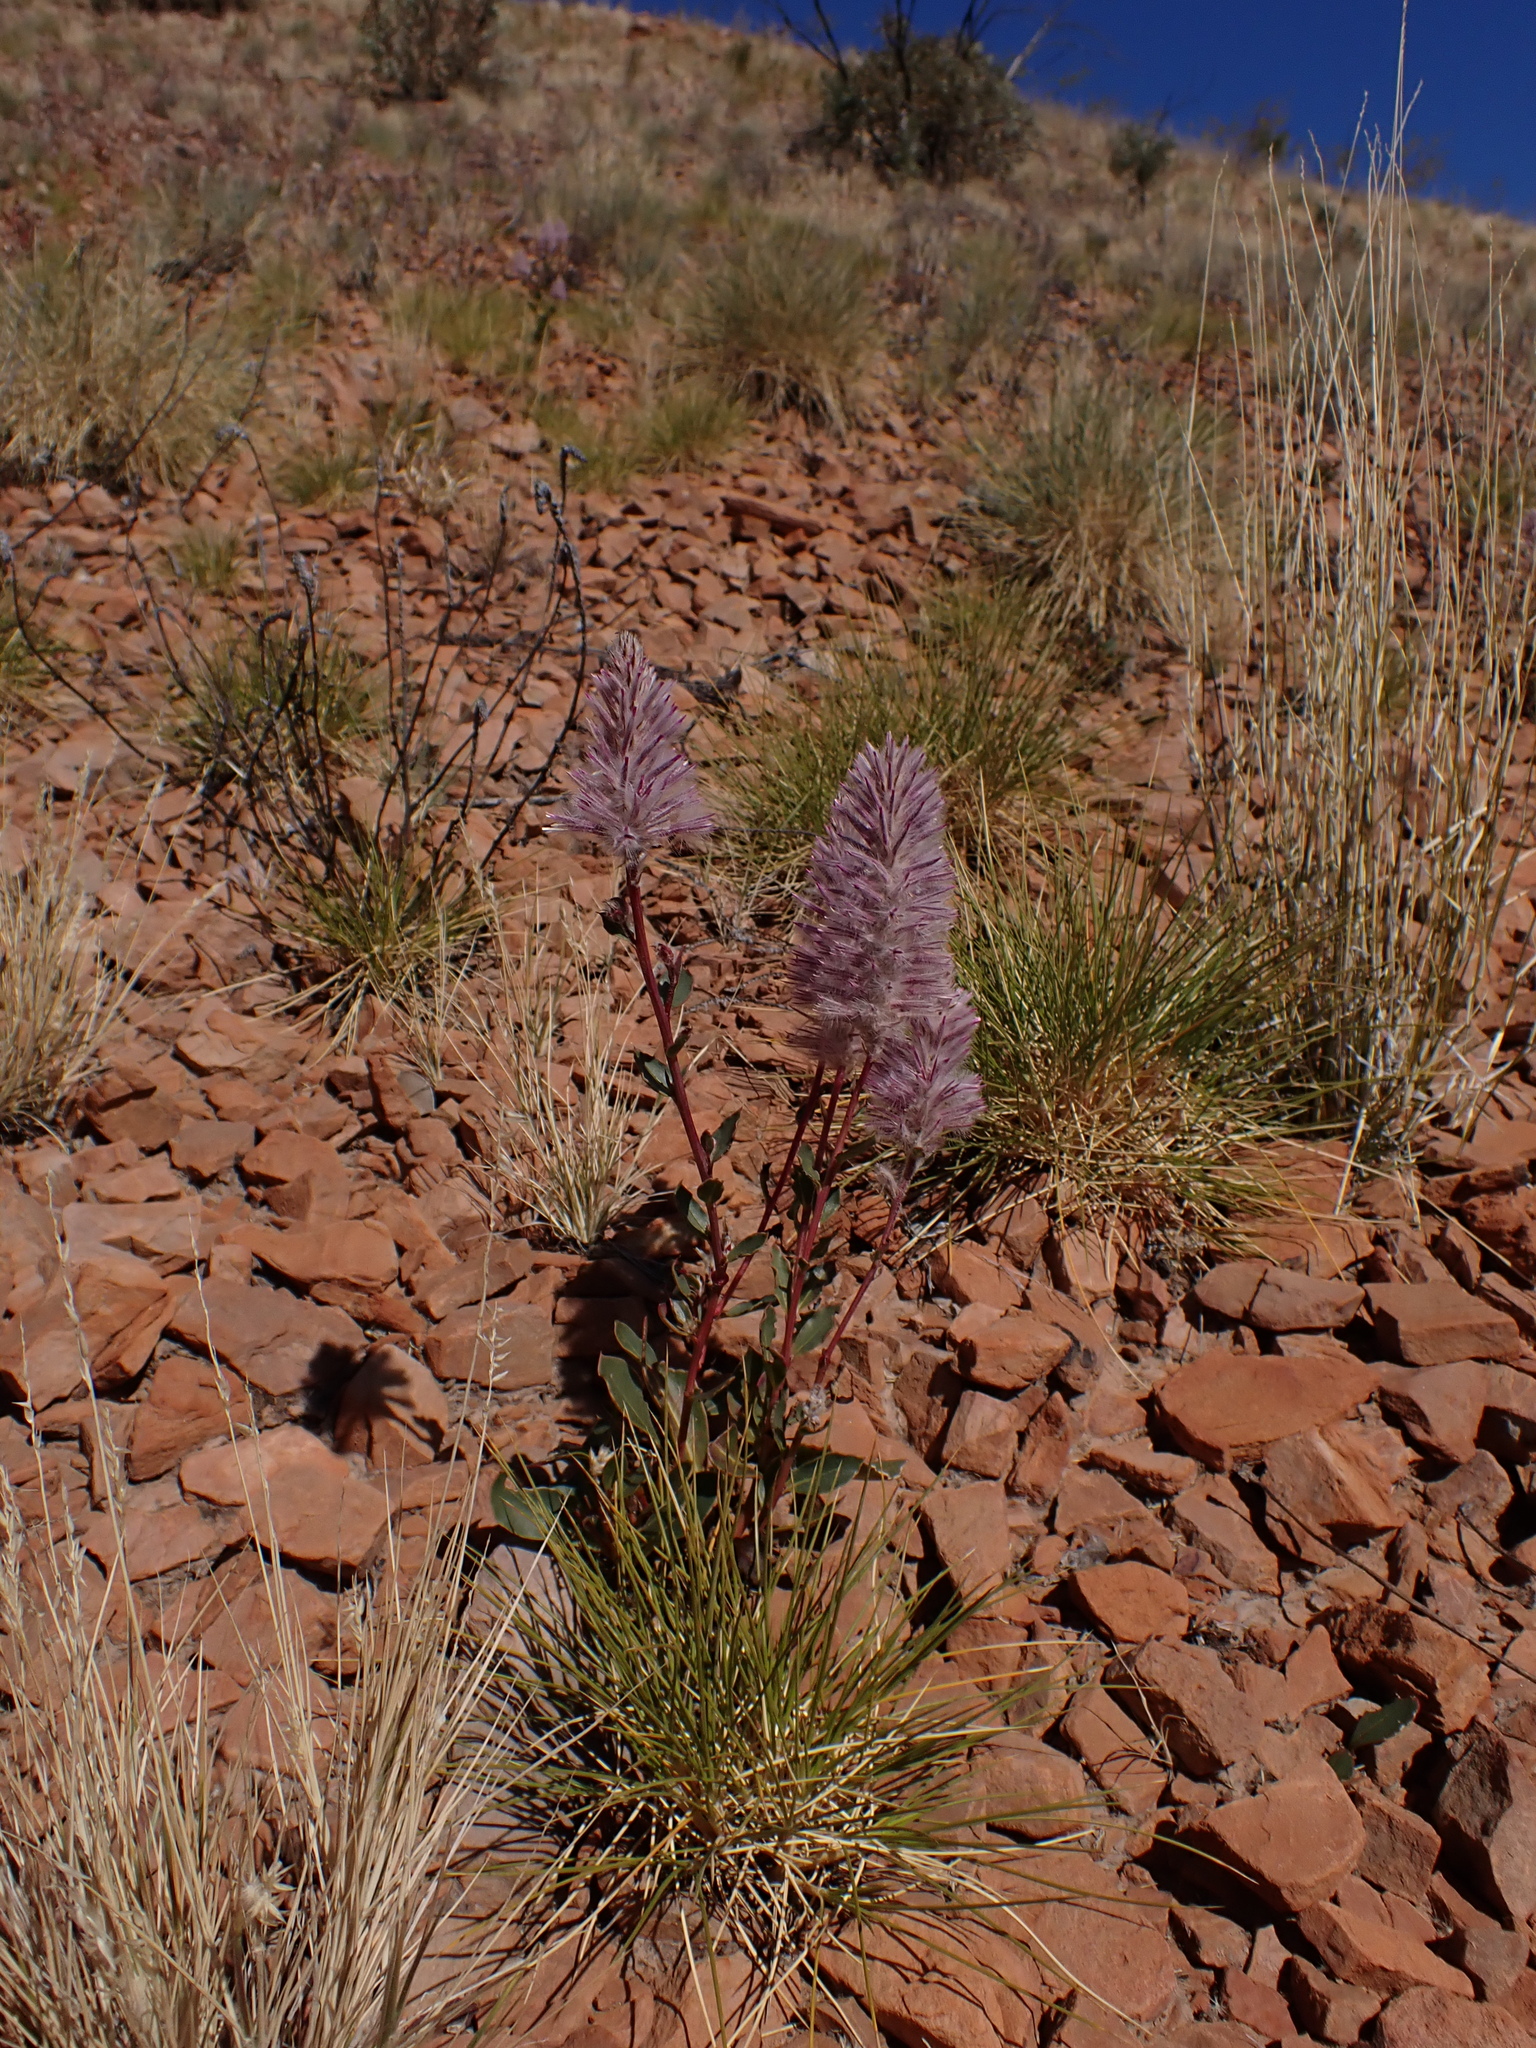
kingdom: Plantae
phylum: Tracheophyta
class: Magnoliopsida
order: Caryophyllales
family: Amaranthaceae
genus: Ptilotus
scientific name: Ptilotus exaltatus
